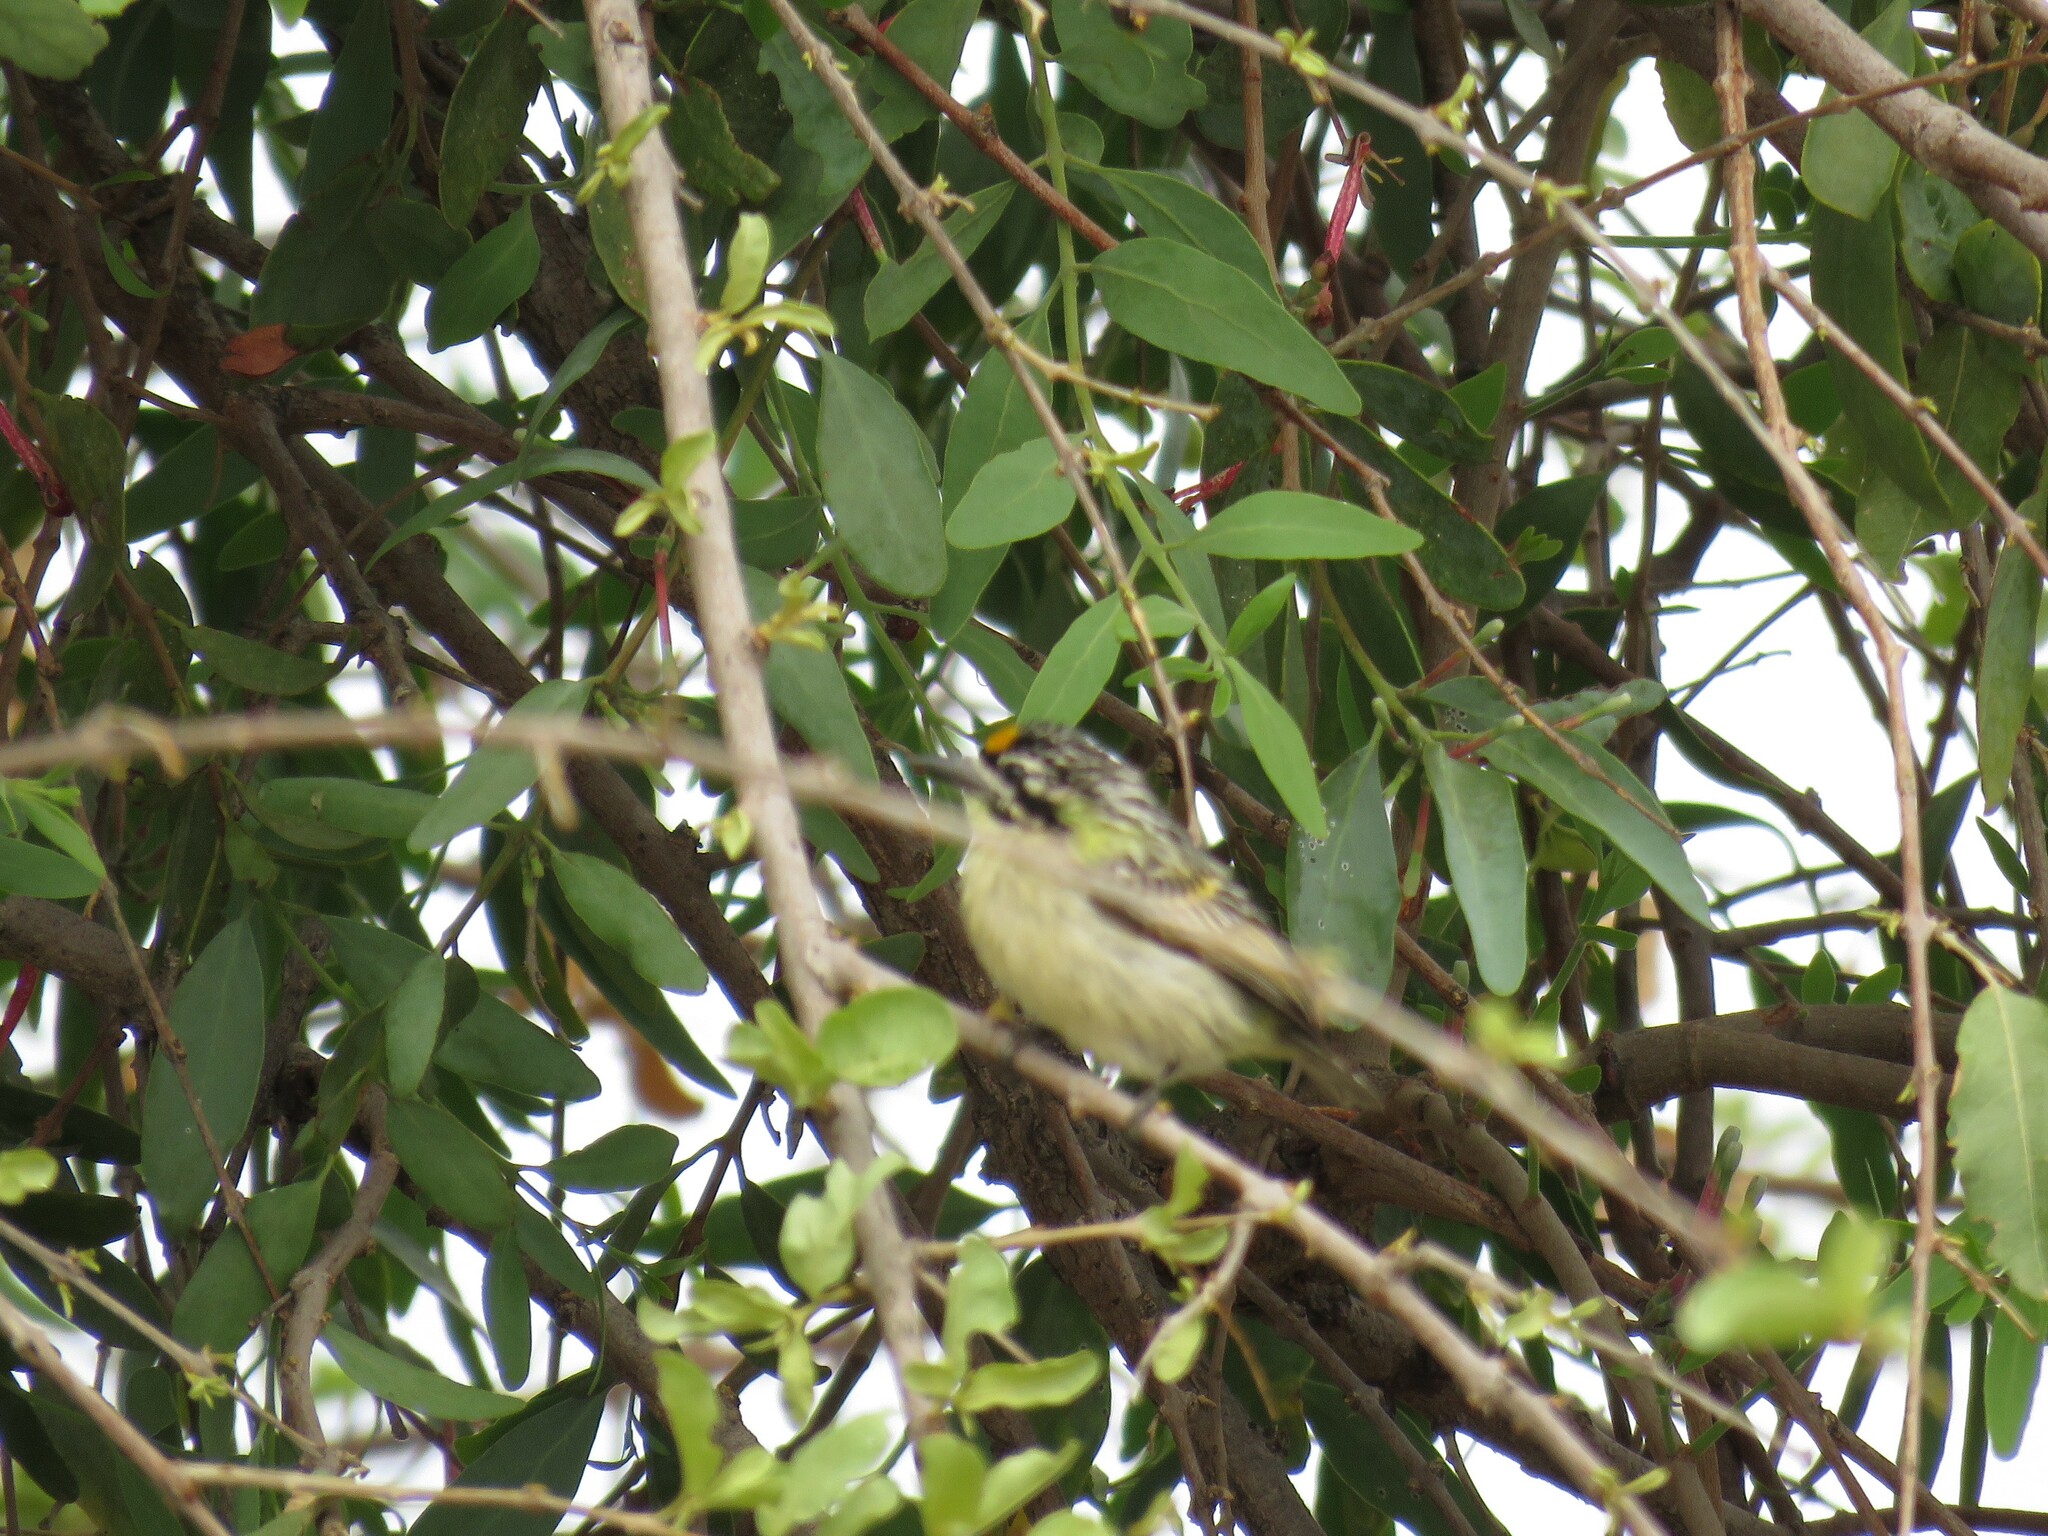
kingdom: Animalia
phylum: Chordata
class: Aves
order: Piciformes
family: Lybiidae
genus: Pogoniulus
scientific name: Pogoniulus chrysoconus
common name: Yellow-fronted tinkerbird
